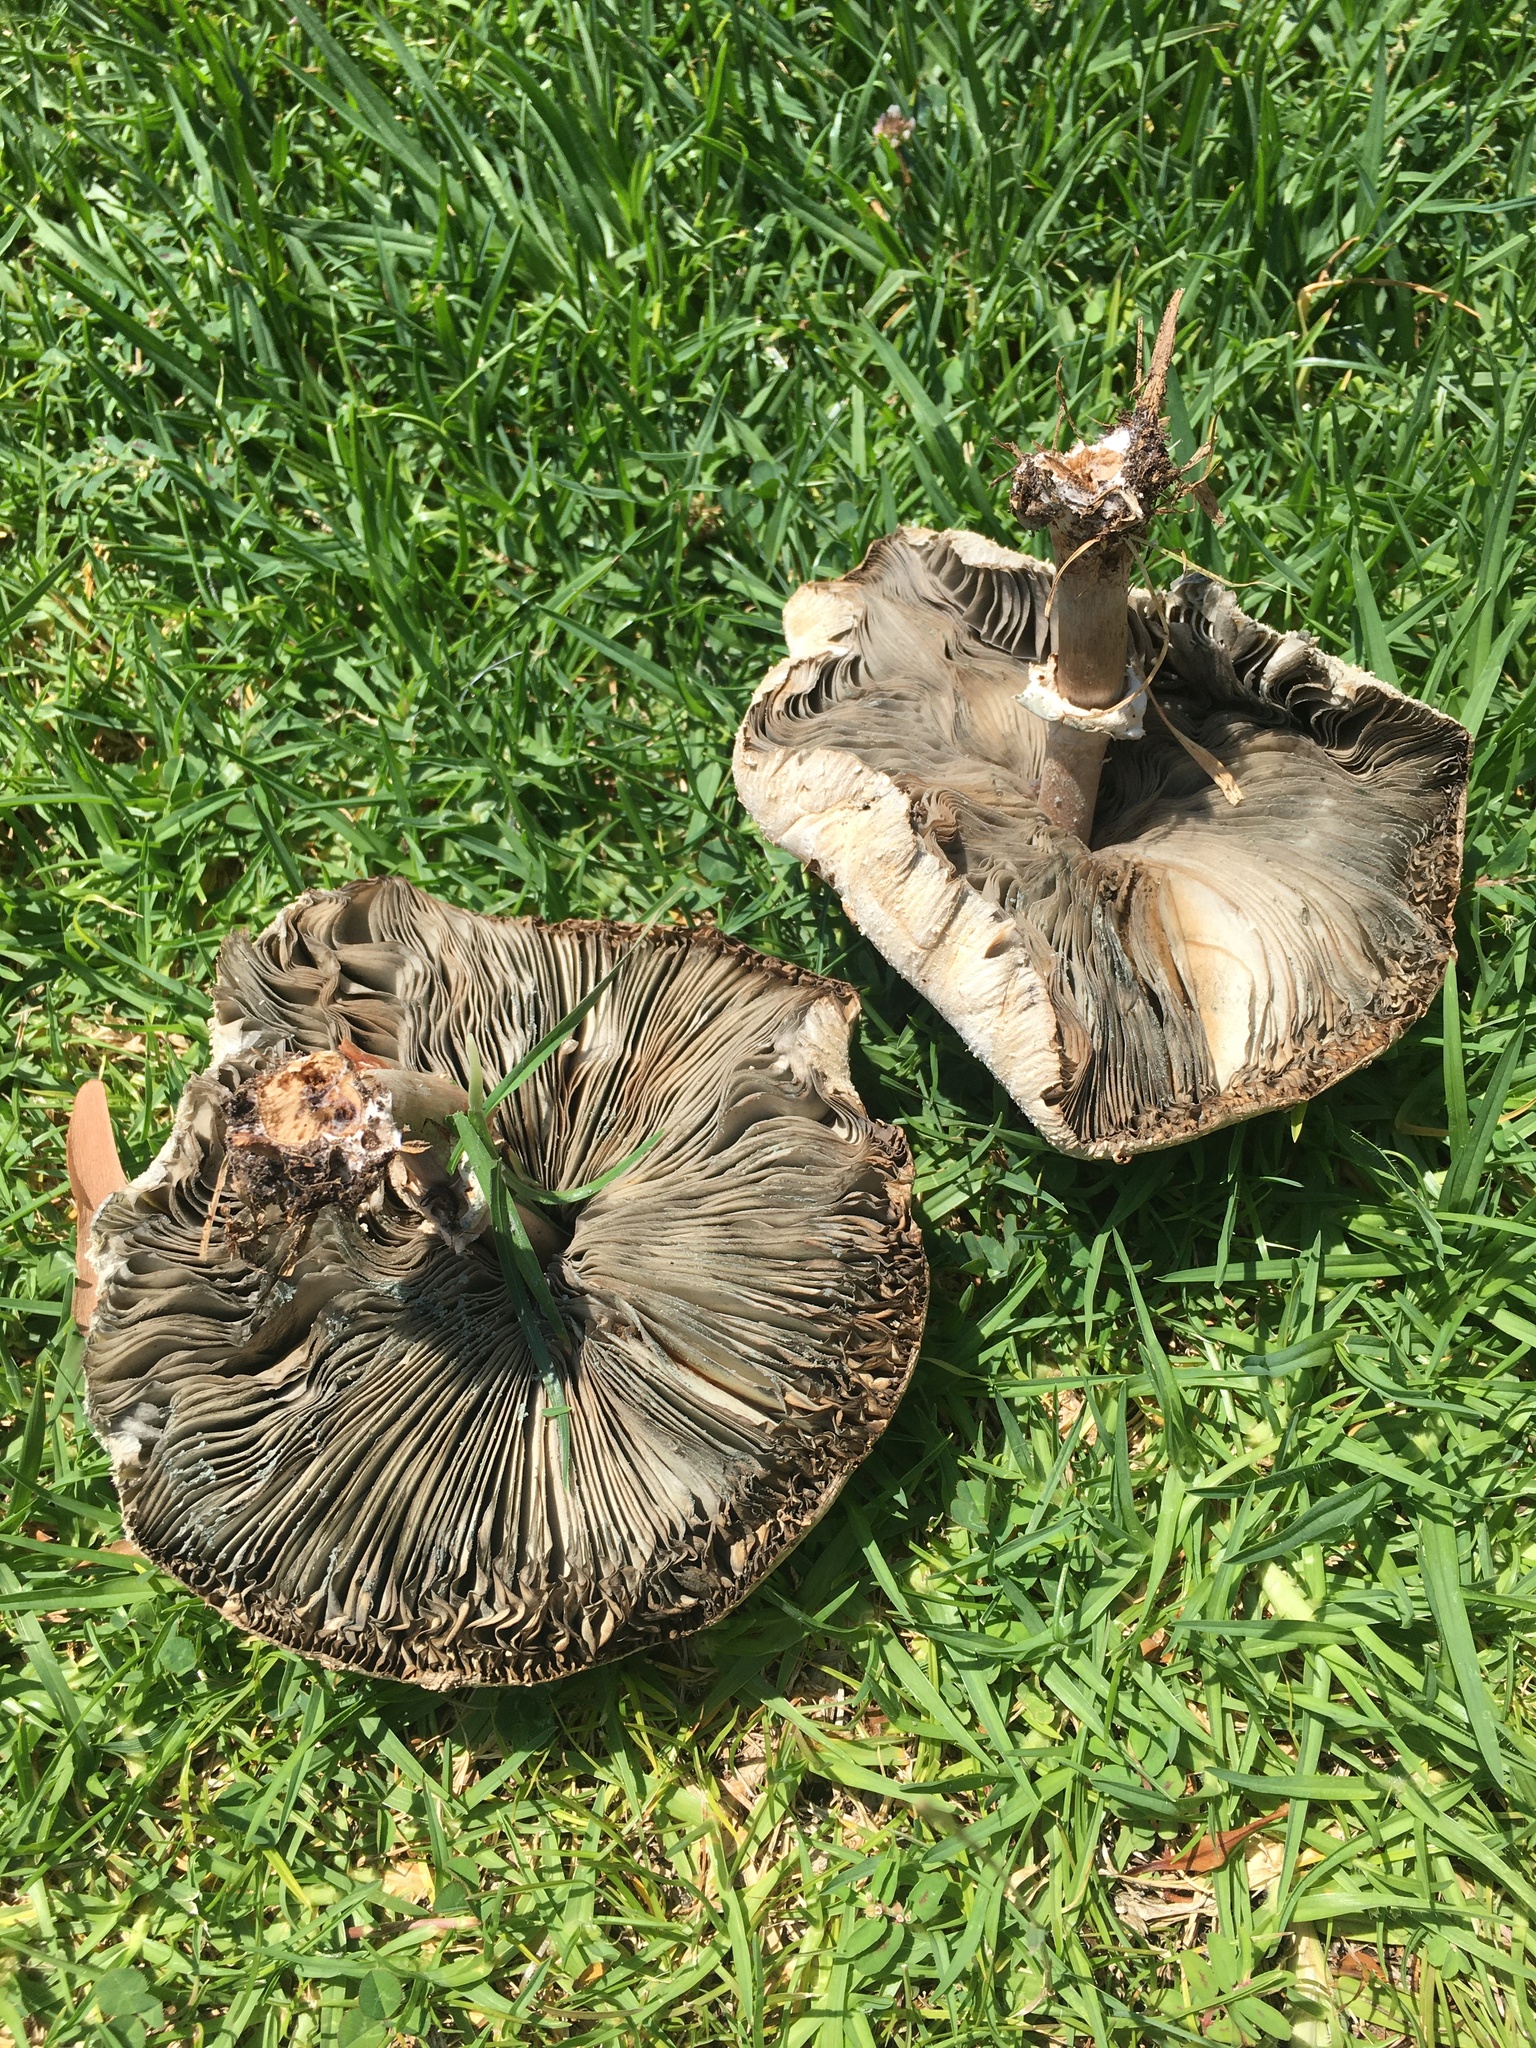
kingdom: Fungi
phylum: Basidiomycota
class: Agaricomycetes
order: Agaricales
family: Agaricaceae
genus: Chlorophyllum
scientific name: Chlorophyllum molybdites
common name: False parasol
